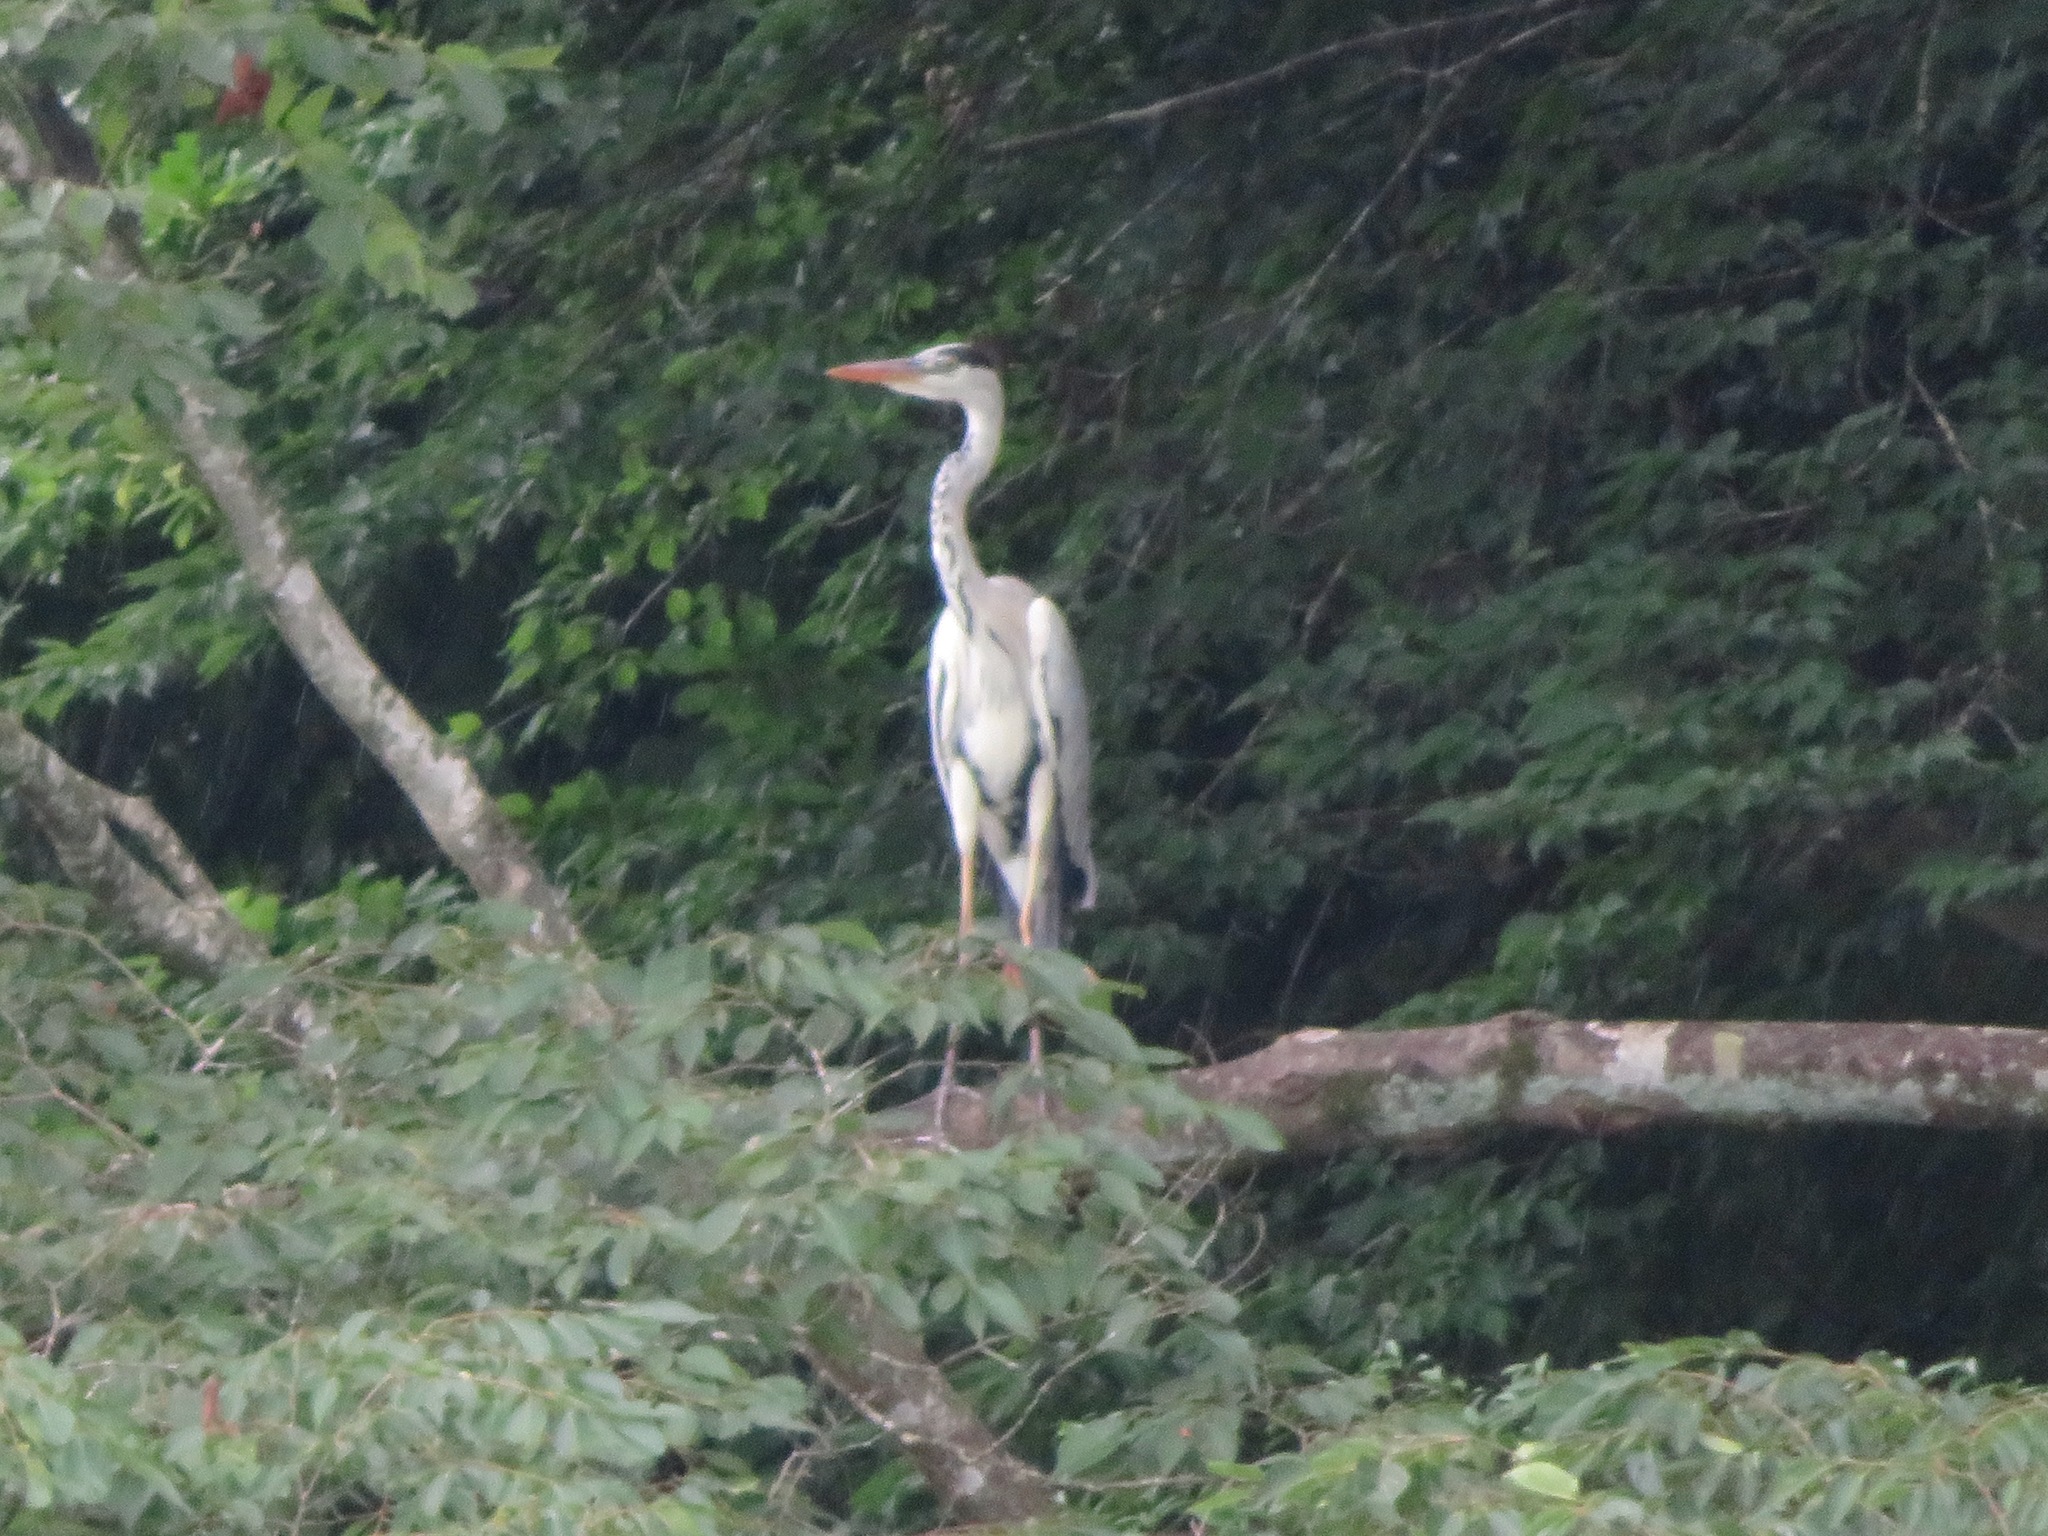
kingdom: Animalia
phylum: Chordata
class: Aves
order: Pelecaniformes
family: Ardeidae
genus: Ardea
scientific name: Ardea cinerea
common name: Grey heron
